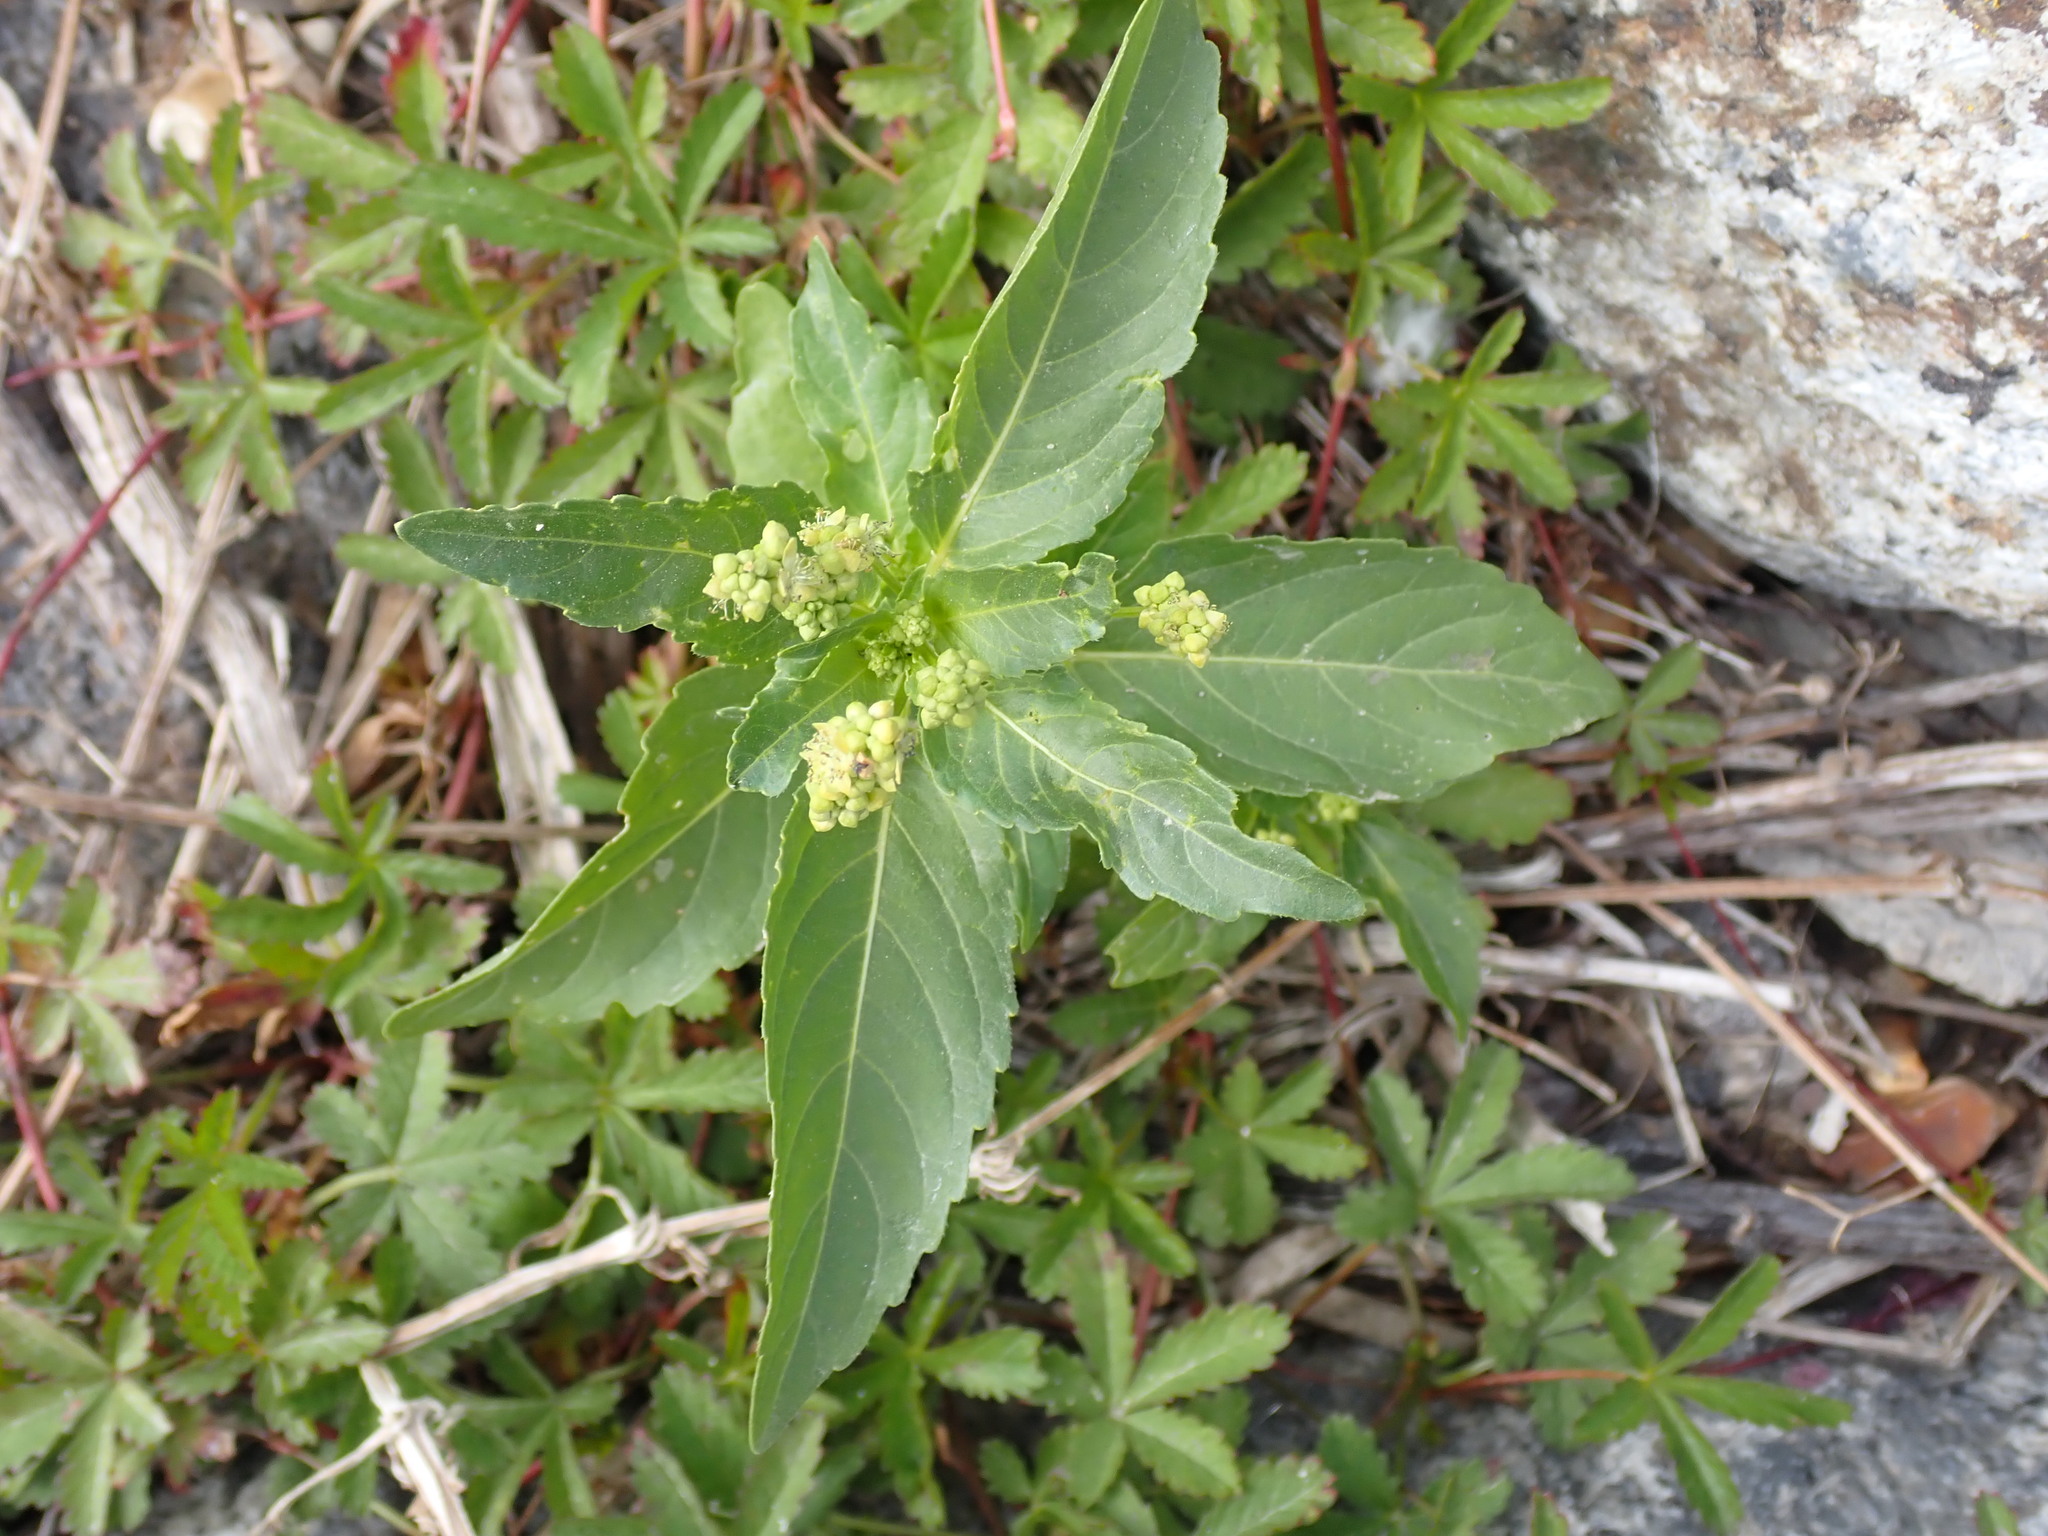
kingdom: Plantae
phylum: Tracheophyta
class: Magnoliopsida
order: Malpighiales
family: Euphorbiaceae
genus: Mercurialis
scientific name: Mercurialis annua
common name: Annual mercury
